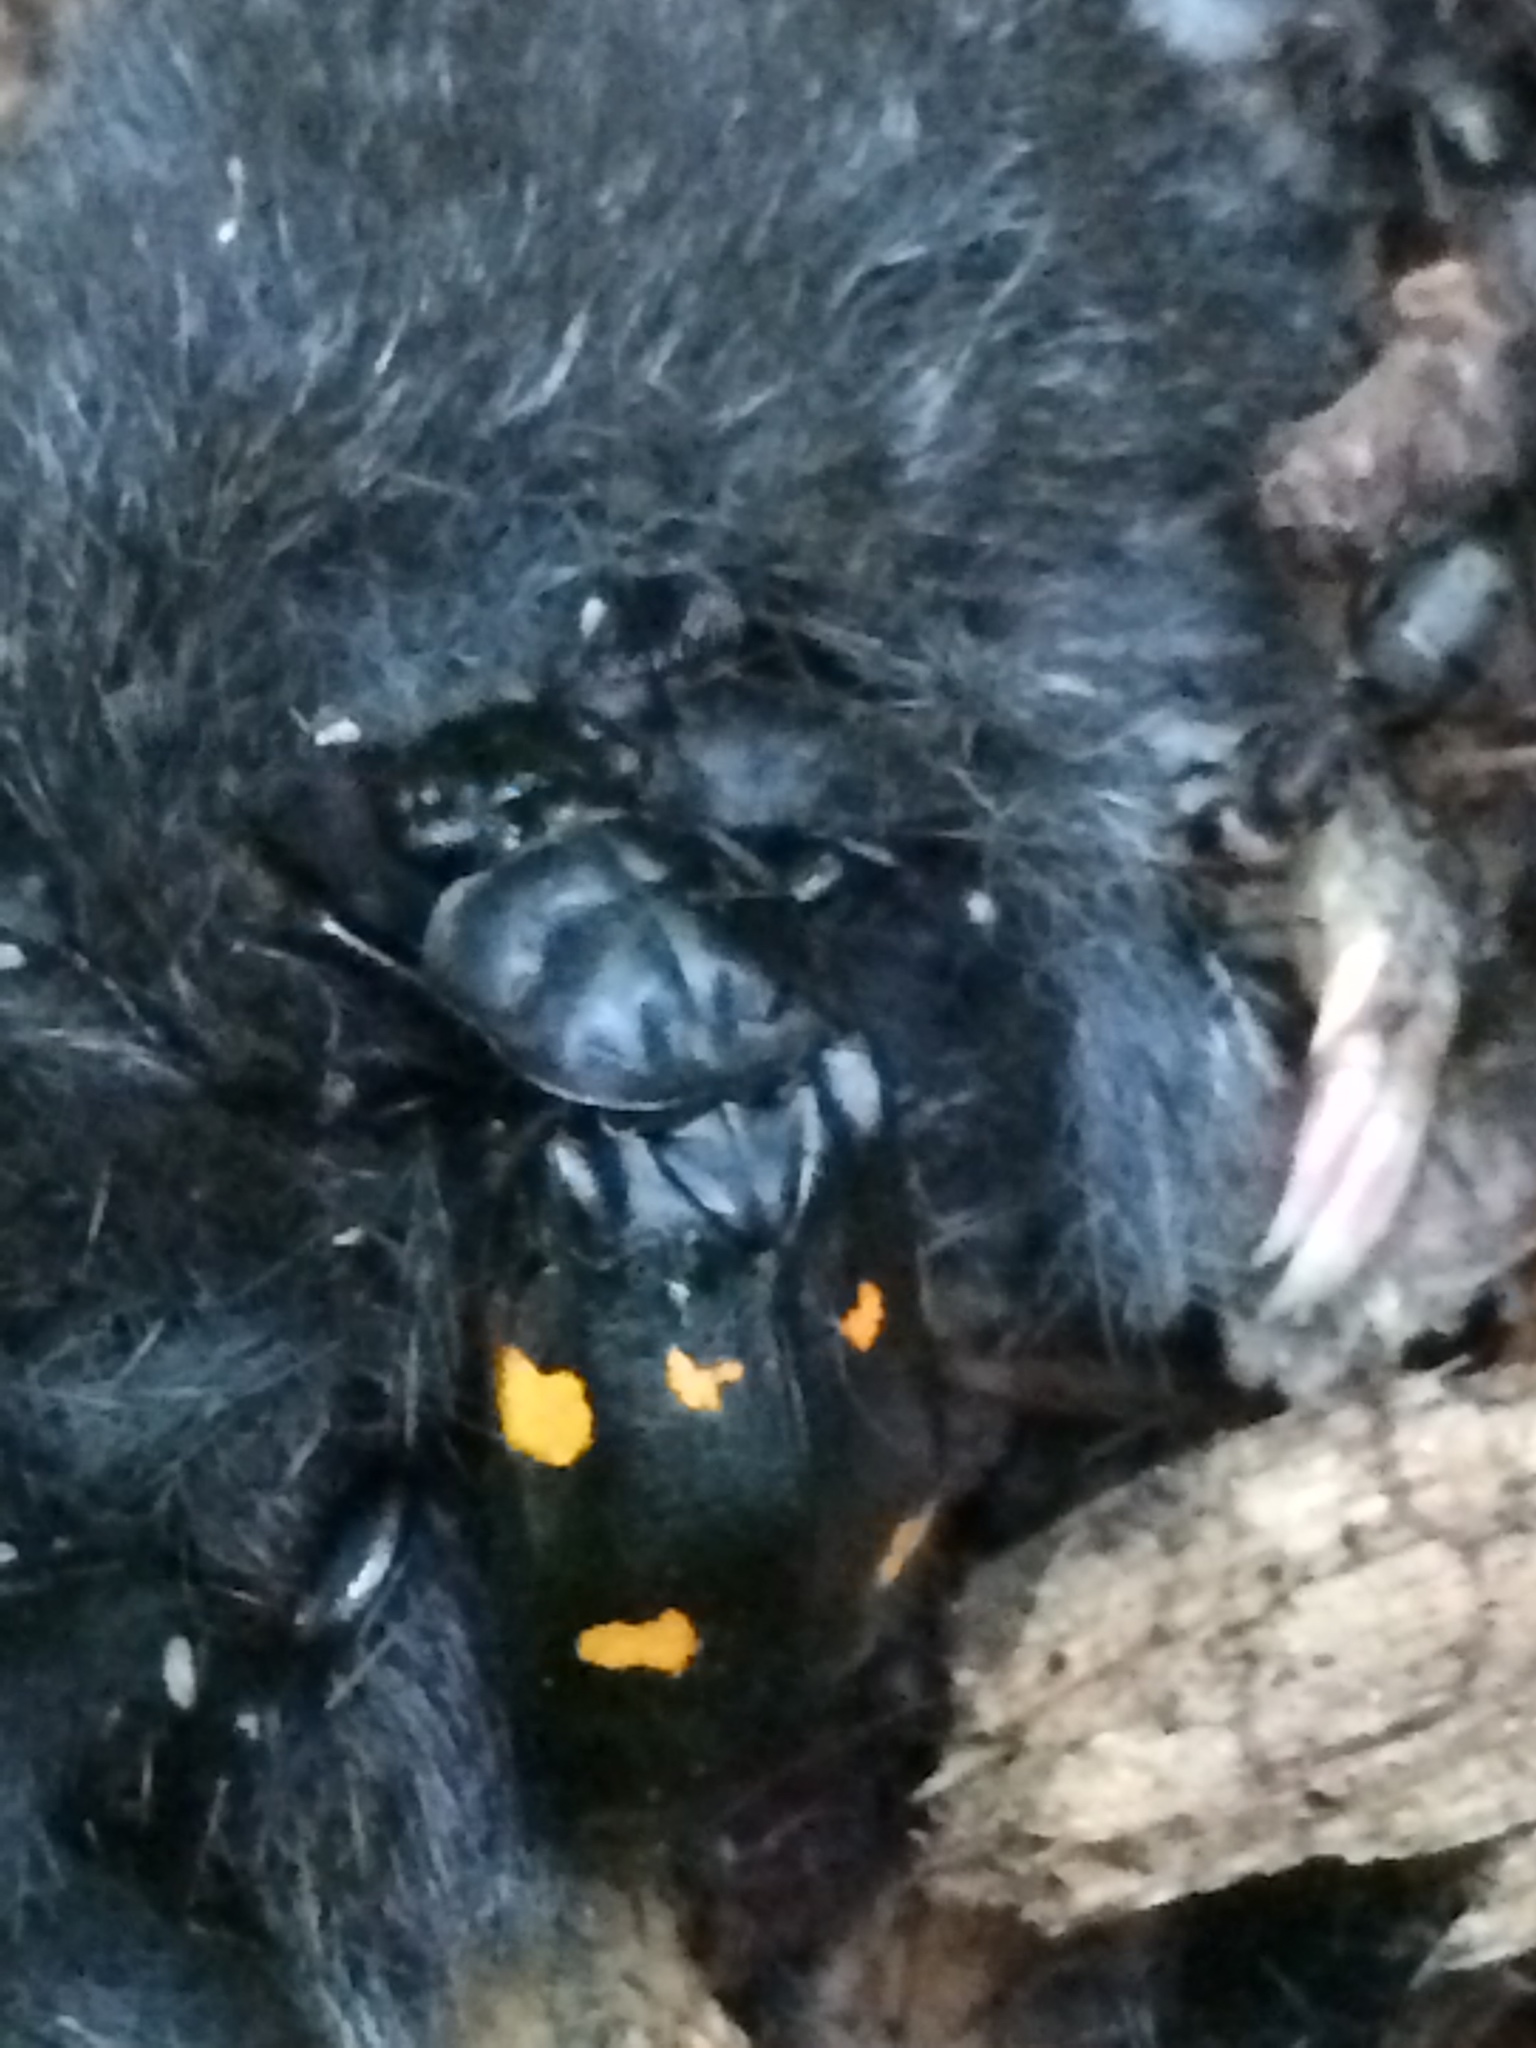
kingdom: Animalia
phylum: Arthropoda
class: Insecta
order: Coleoptera
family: Staphylinidae
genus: Nicrophorus
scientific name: Nicrophorus defodiens
